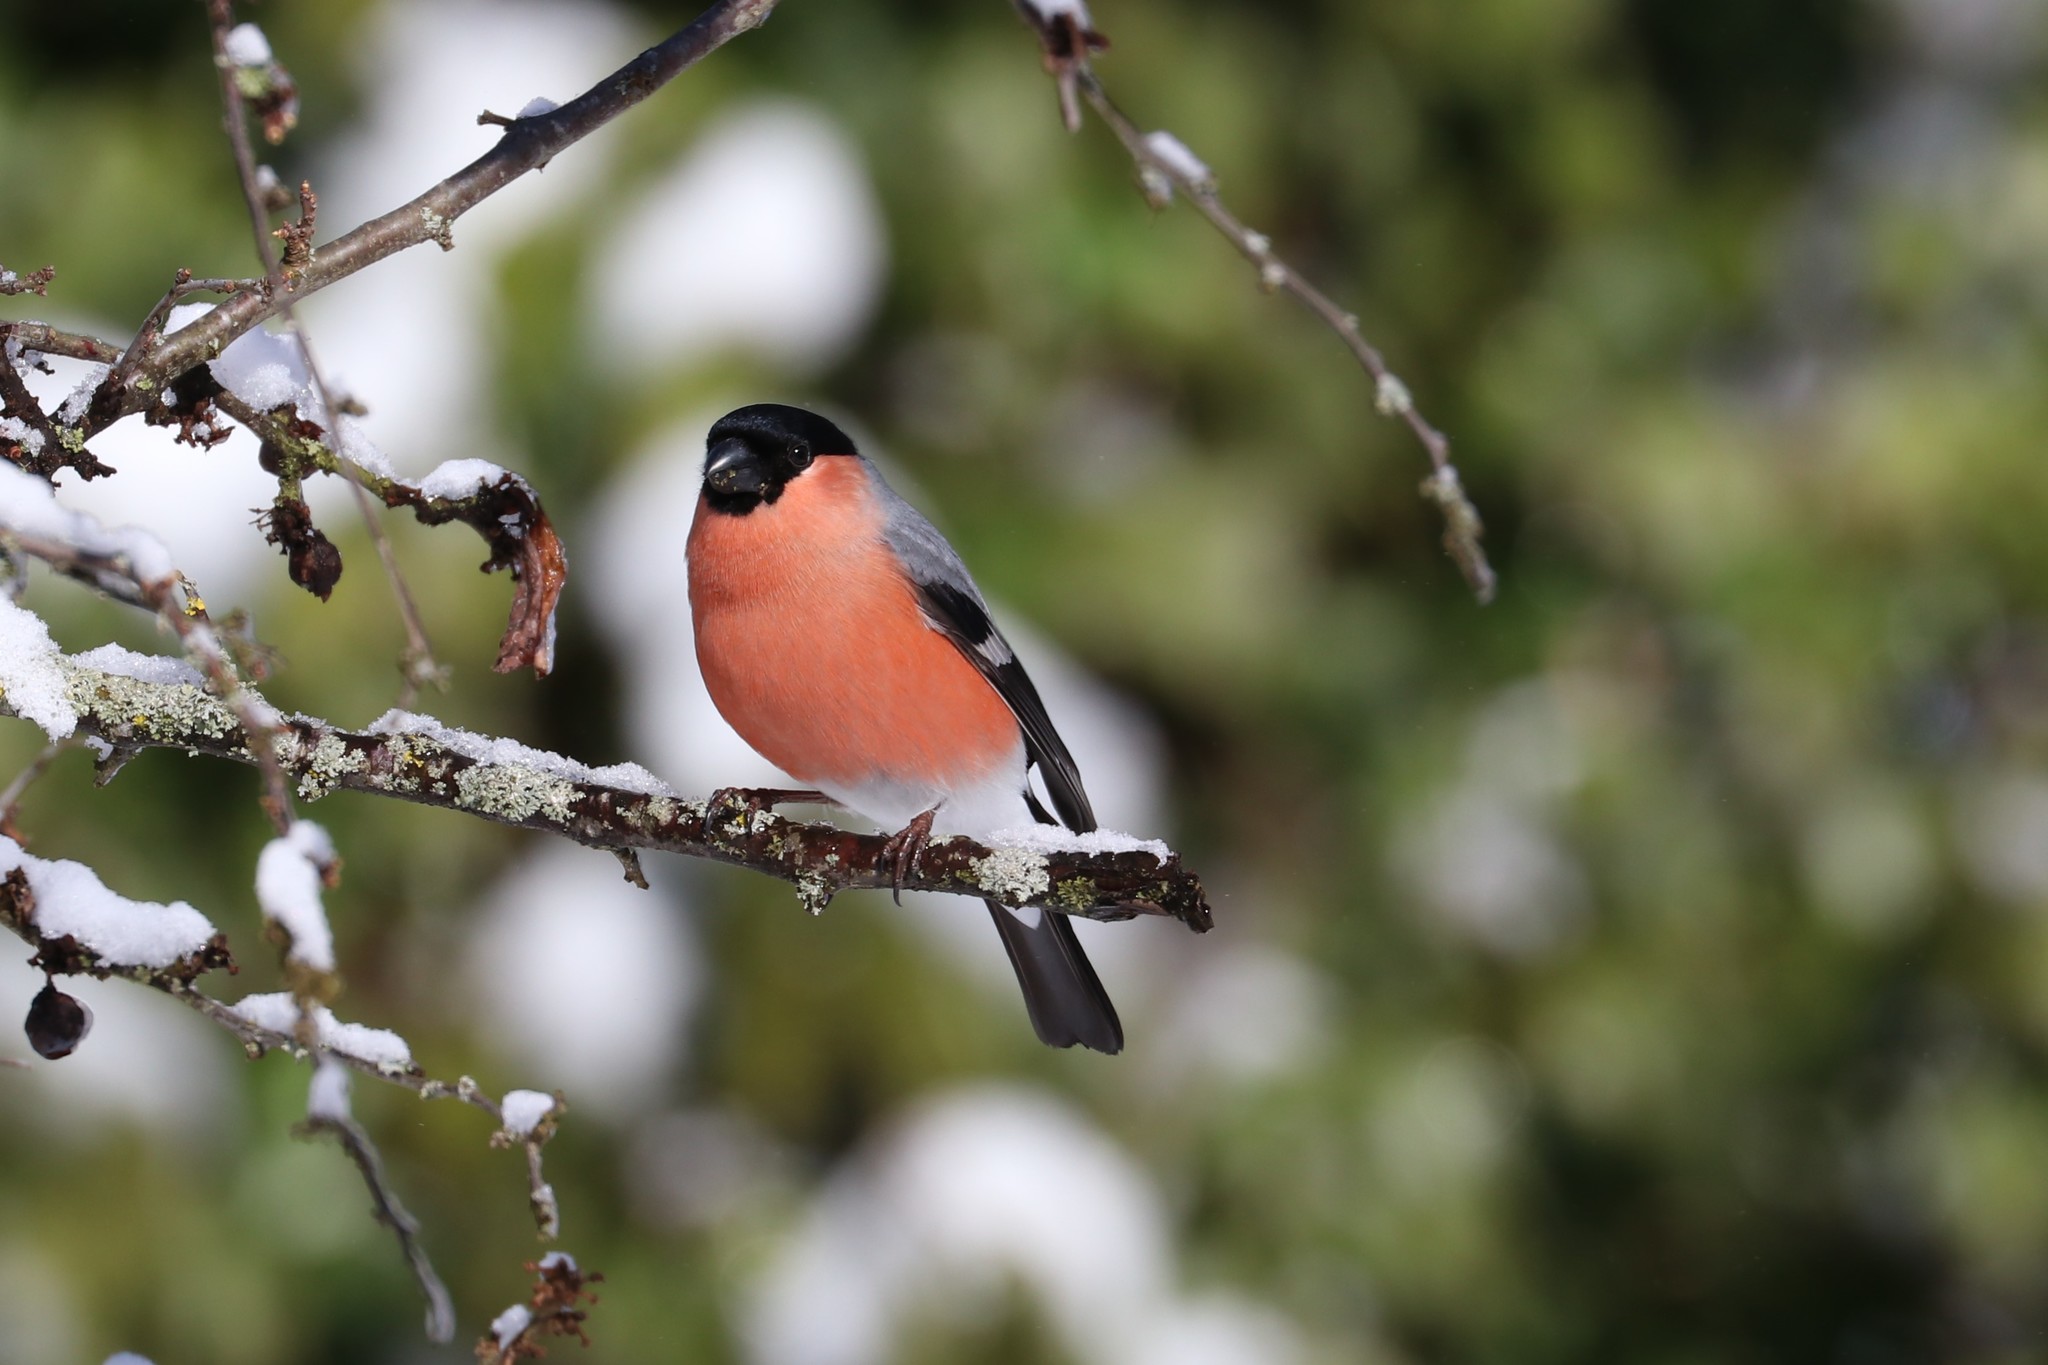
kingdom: Animalia
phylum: Chordata
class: Aves
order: Passeriformes
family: Fringillidae
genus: Pyrrhula
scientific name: Pyrrhula pyrrhula
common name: Eurasian bullfinch
